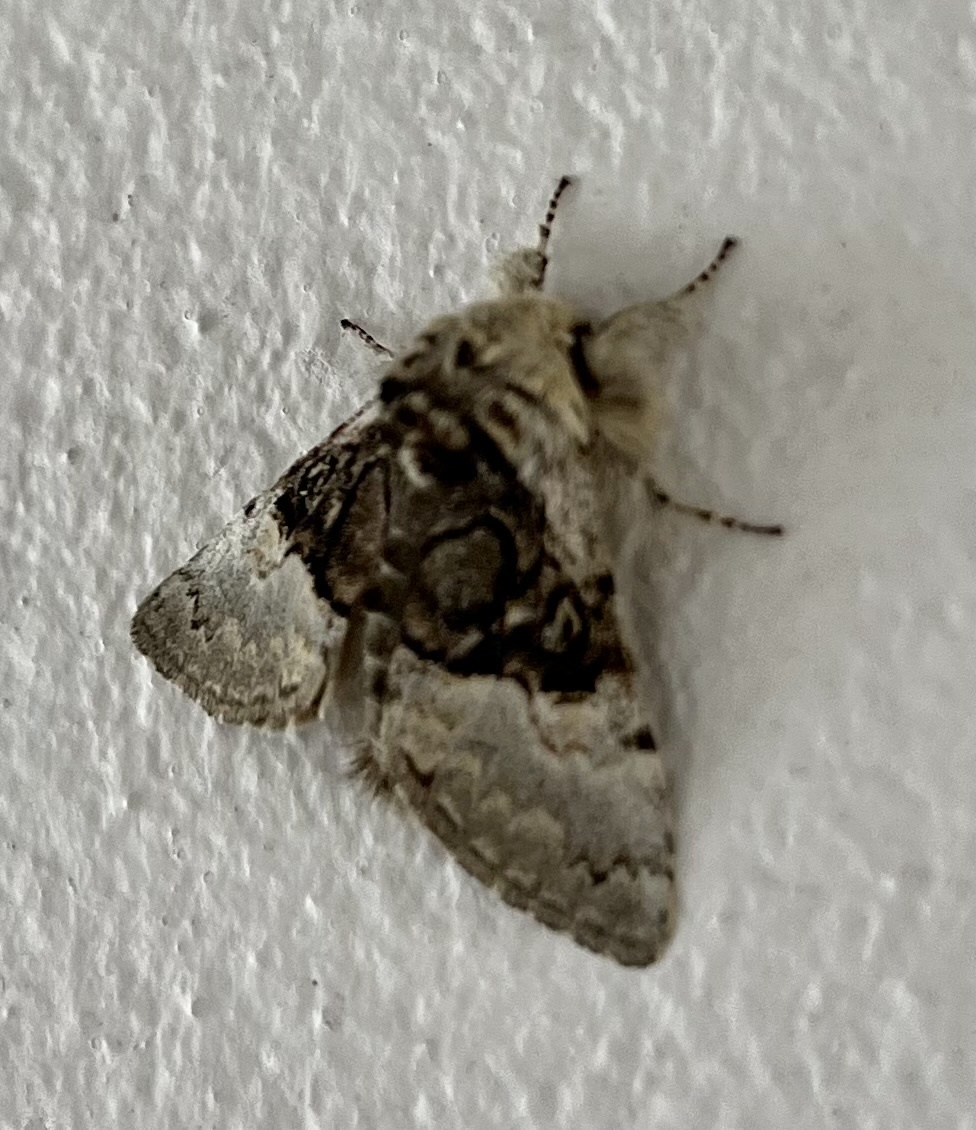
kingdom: Animalia
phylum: Arthropoda
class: Insecta
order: Lepidoptera
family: Noctuidae
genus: Colocasia
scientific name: Colocasia coryli
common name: Nut-tree tussock
